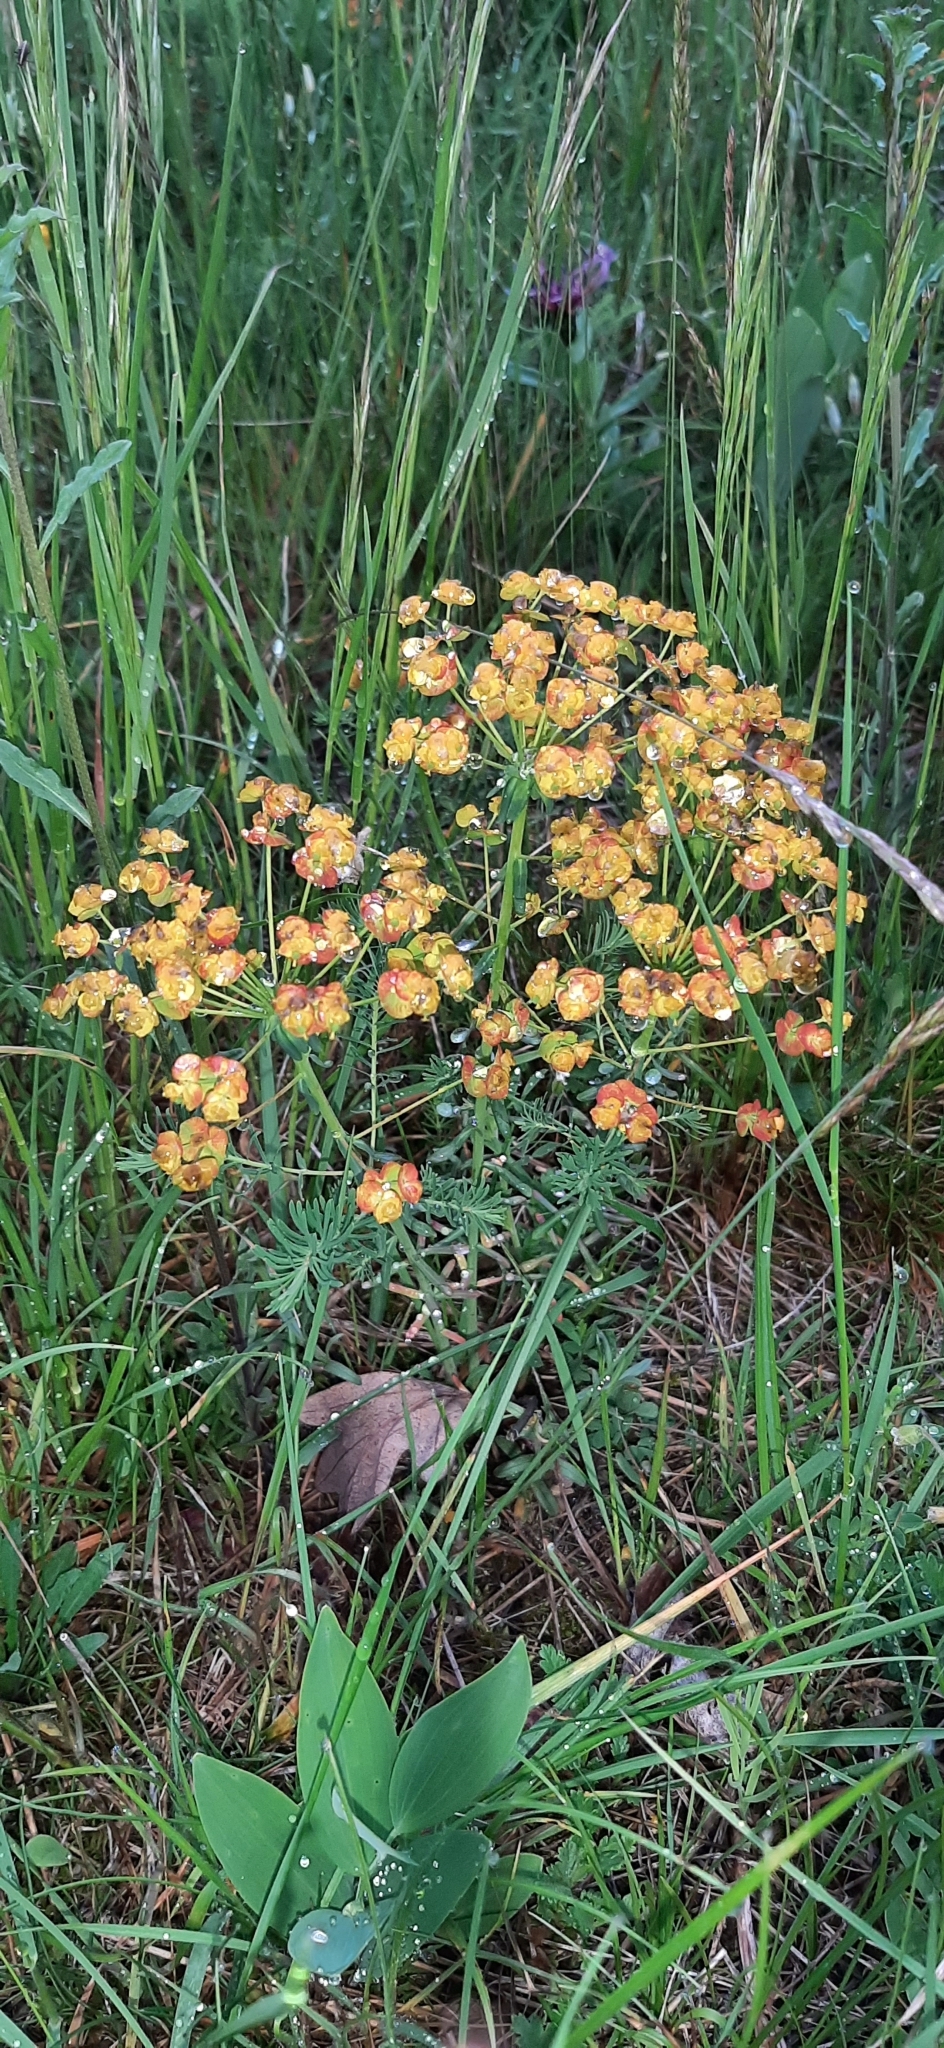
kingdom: Plantae
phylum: Tracheophyta
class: Magnoliopsida
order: Malpighiales
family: Euphorbiaceae
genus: Euphorbia
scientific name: Euphorbia cyparissias
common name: Cypress spurge
